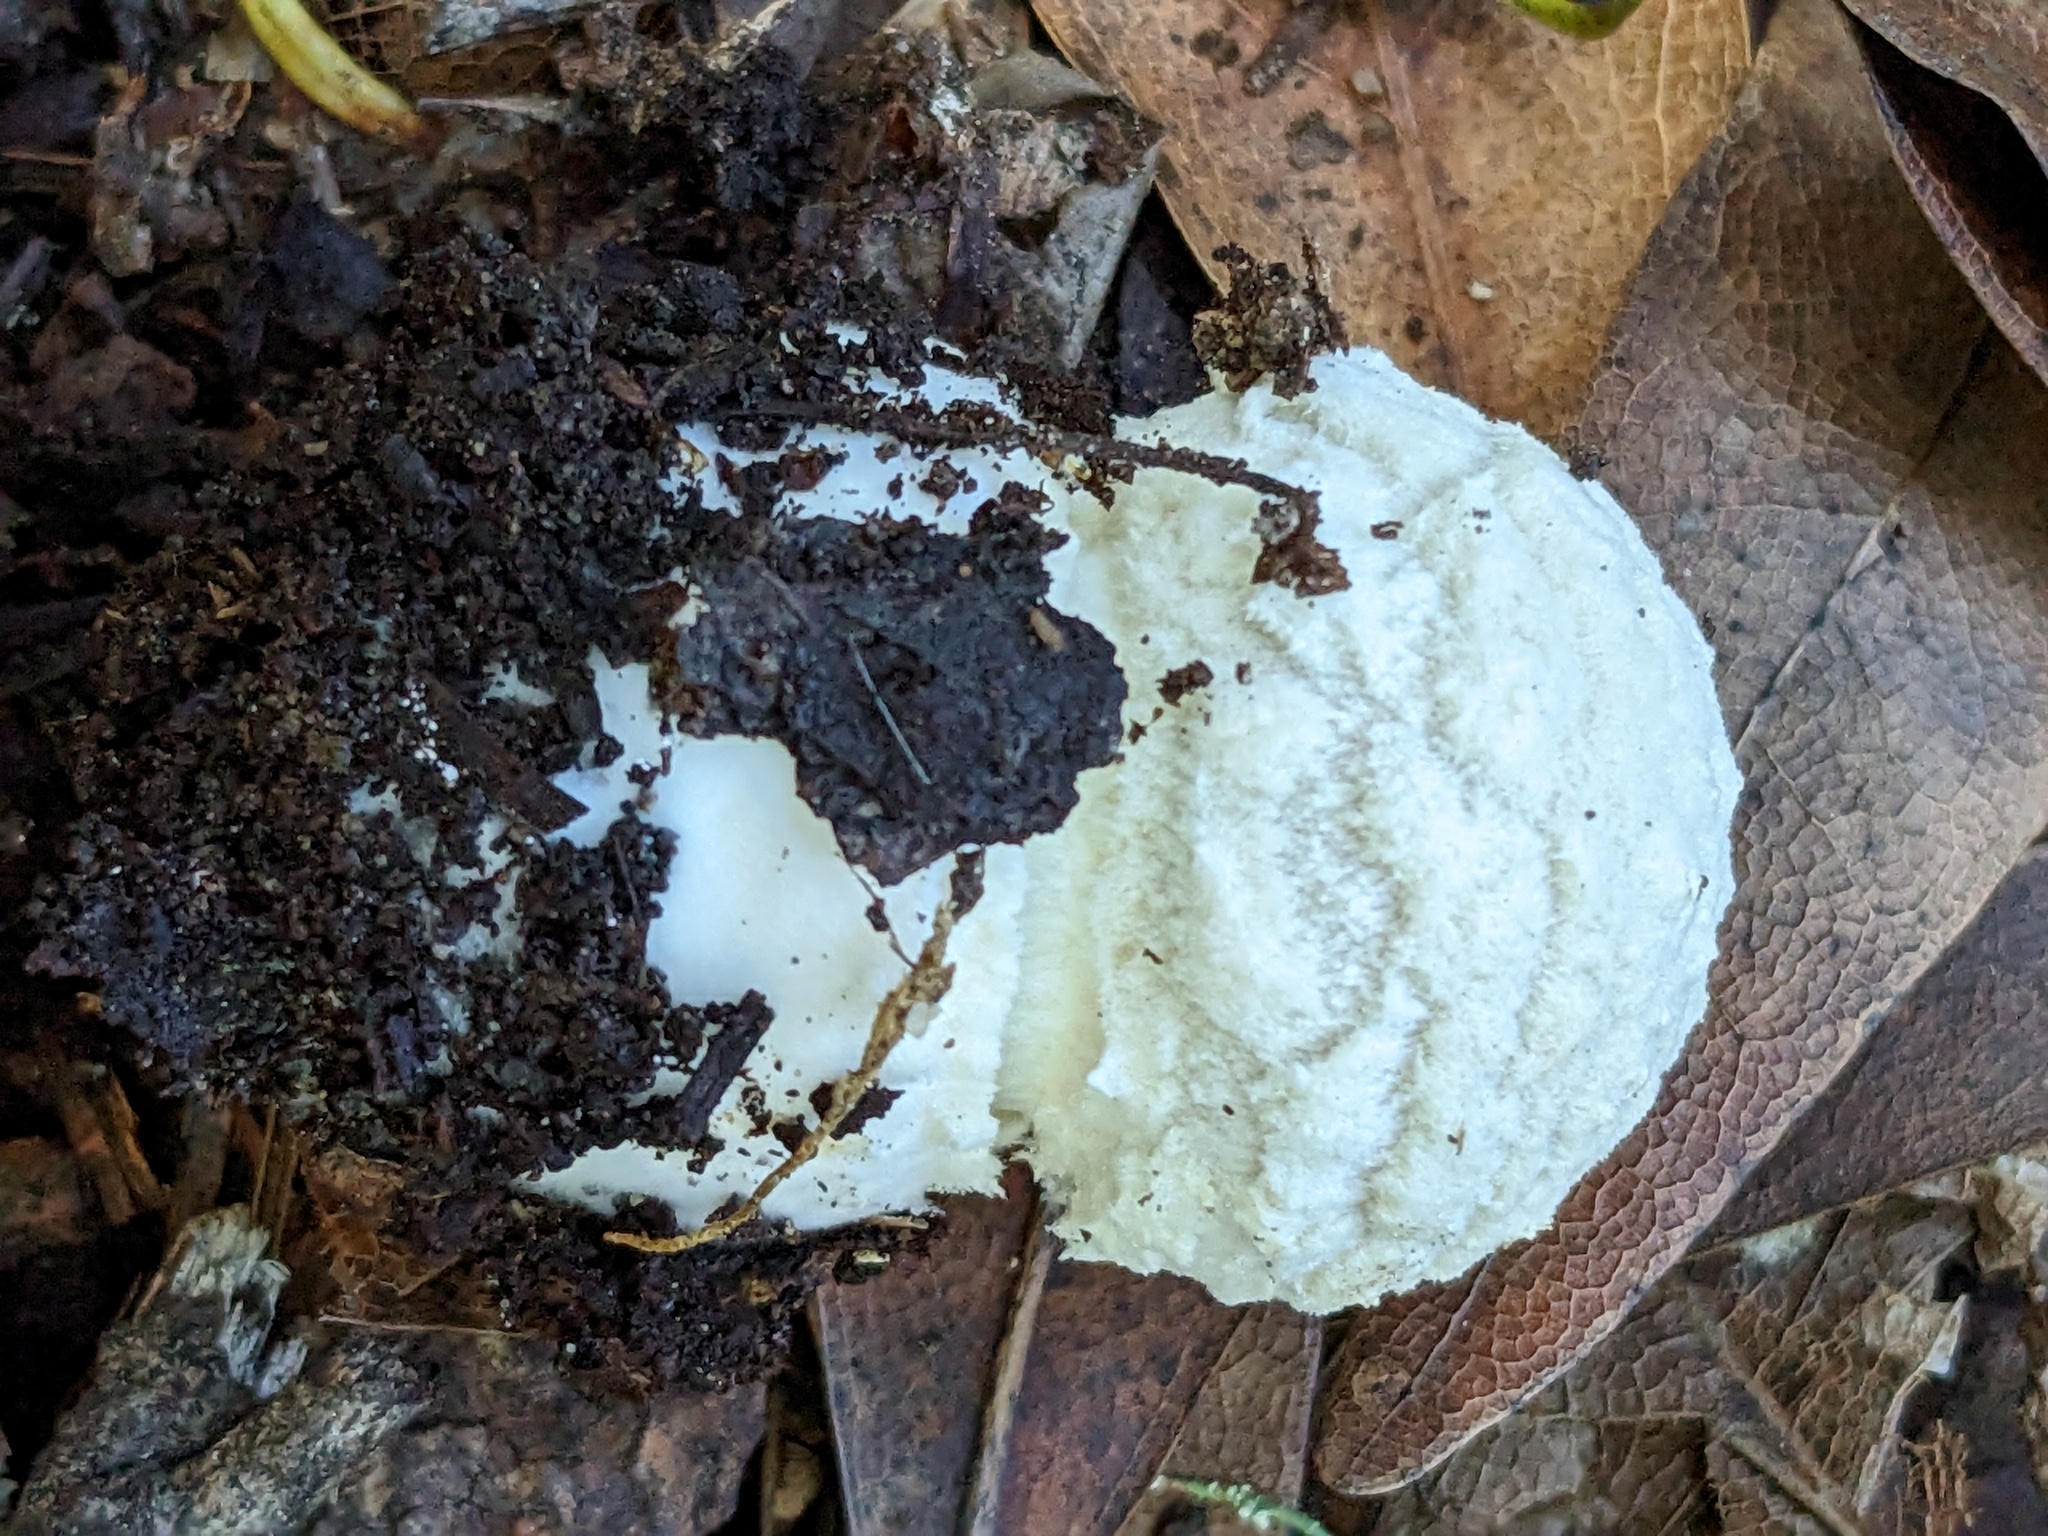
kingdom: Fungi
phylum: Basidiomycota
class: Agaricomycetes
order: Agaricales
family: Amanitaceae
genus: Amanita
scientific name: Amanita magniverrucata
